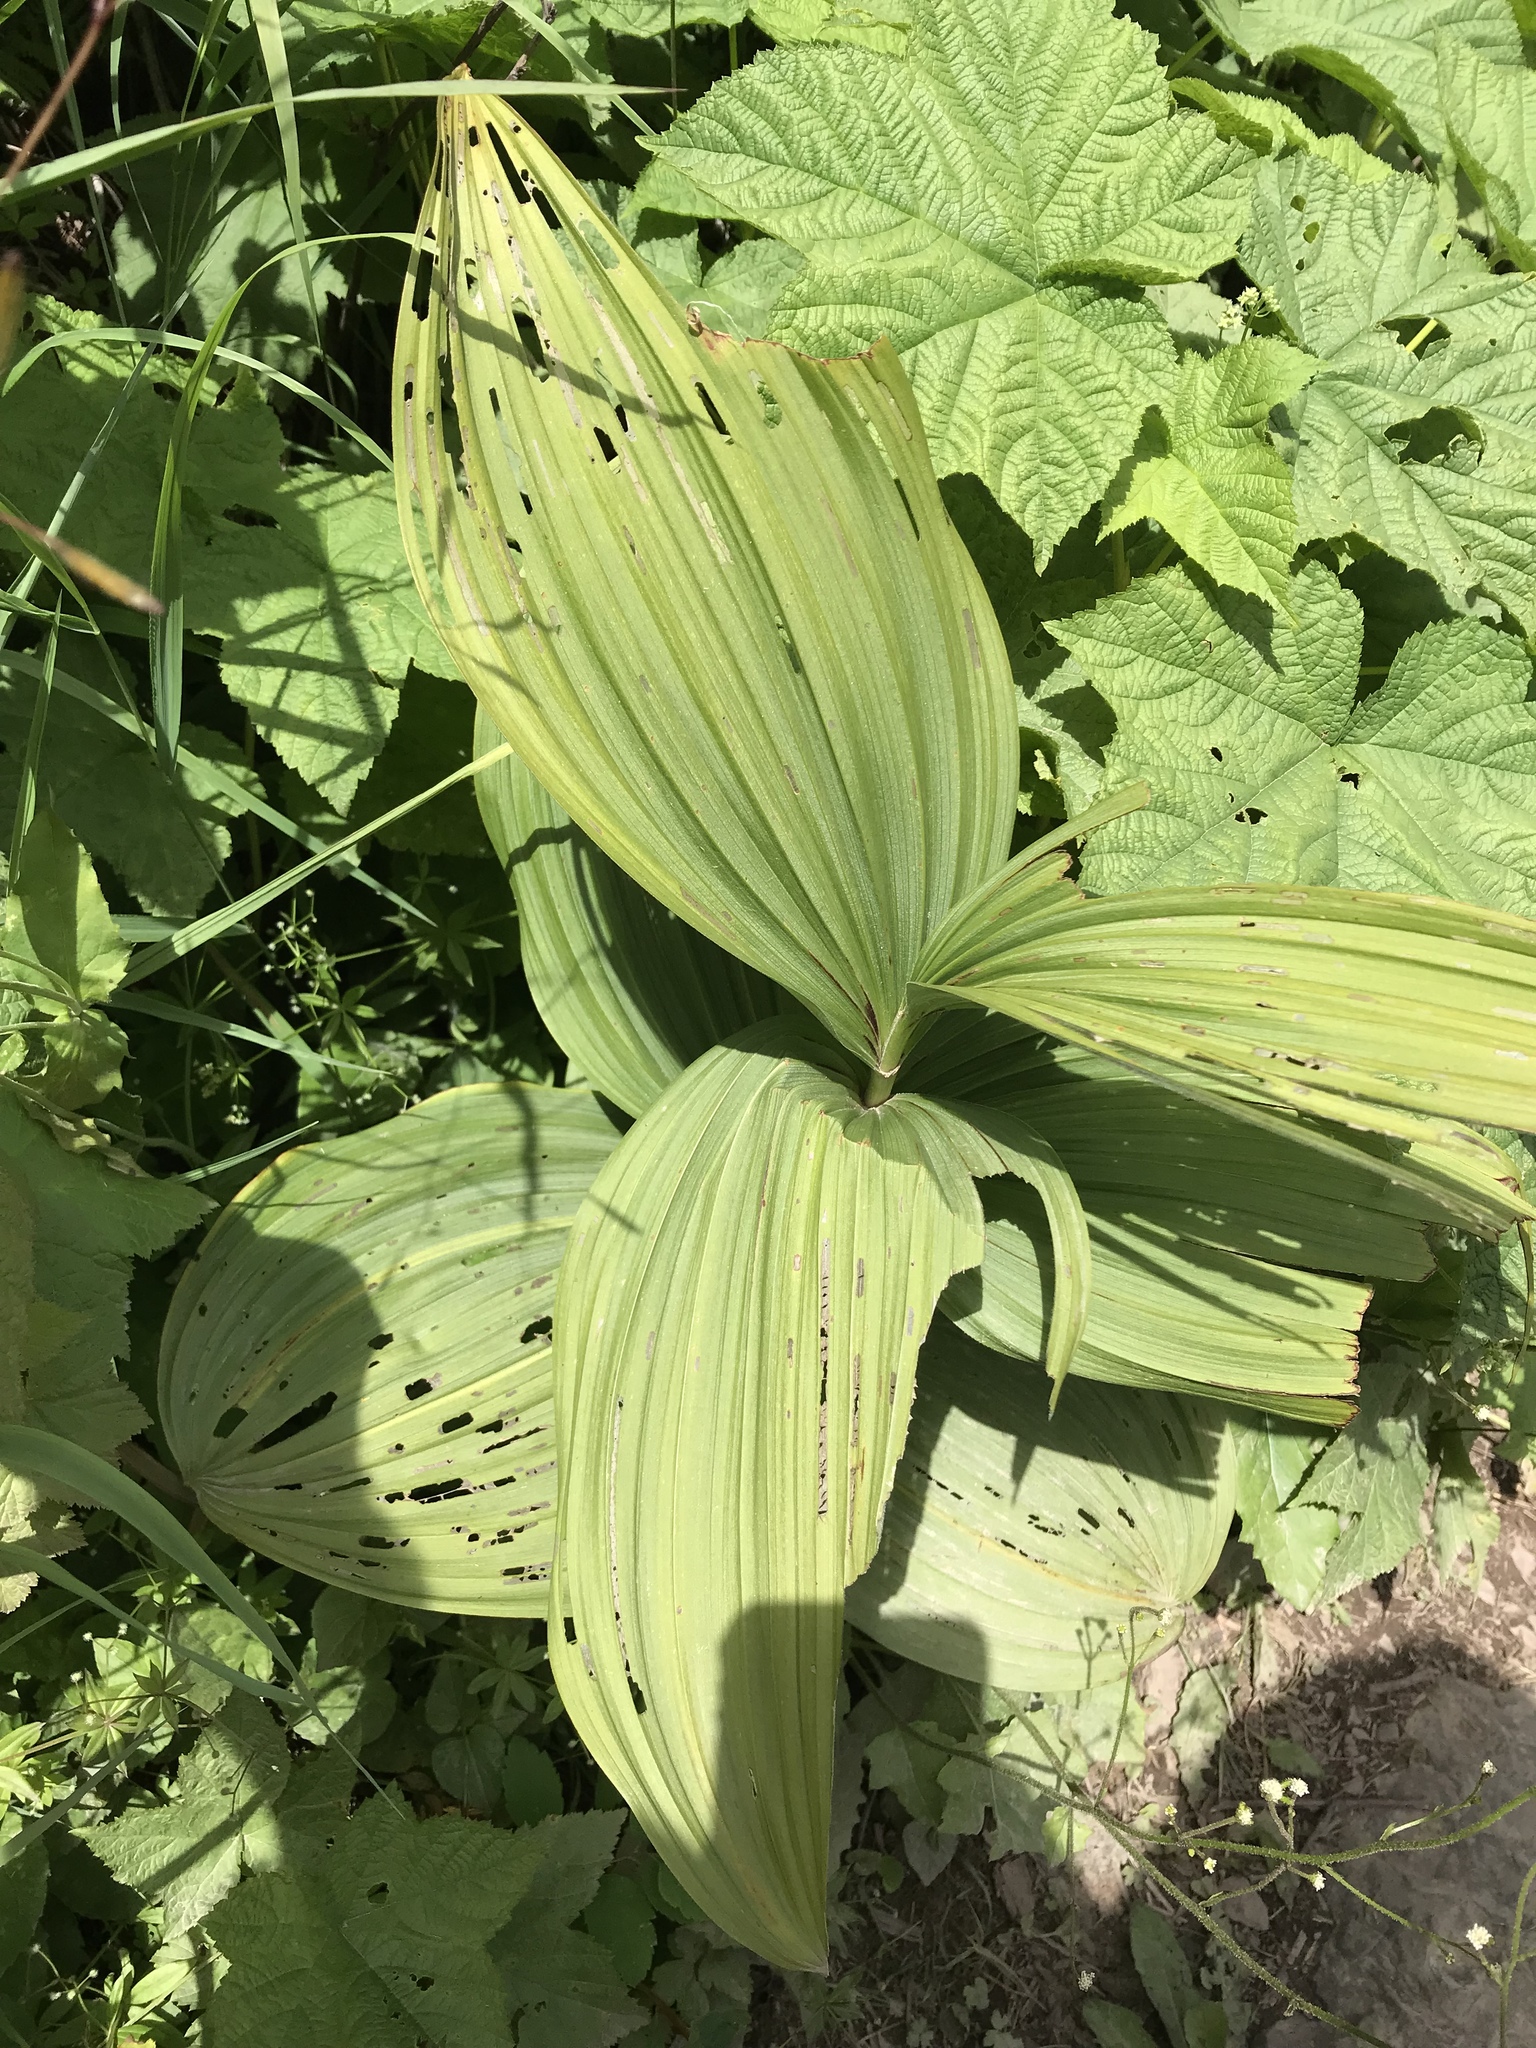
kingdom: Plantae
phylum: Tracheophyta
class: Liliopsida
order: Liliales
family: Melanthiaceae
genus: Veratrum
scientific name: Veratrum viride
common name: American false hellebore
